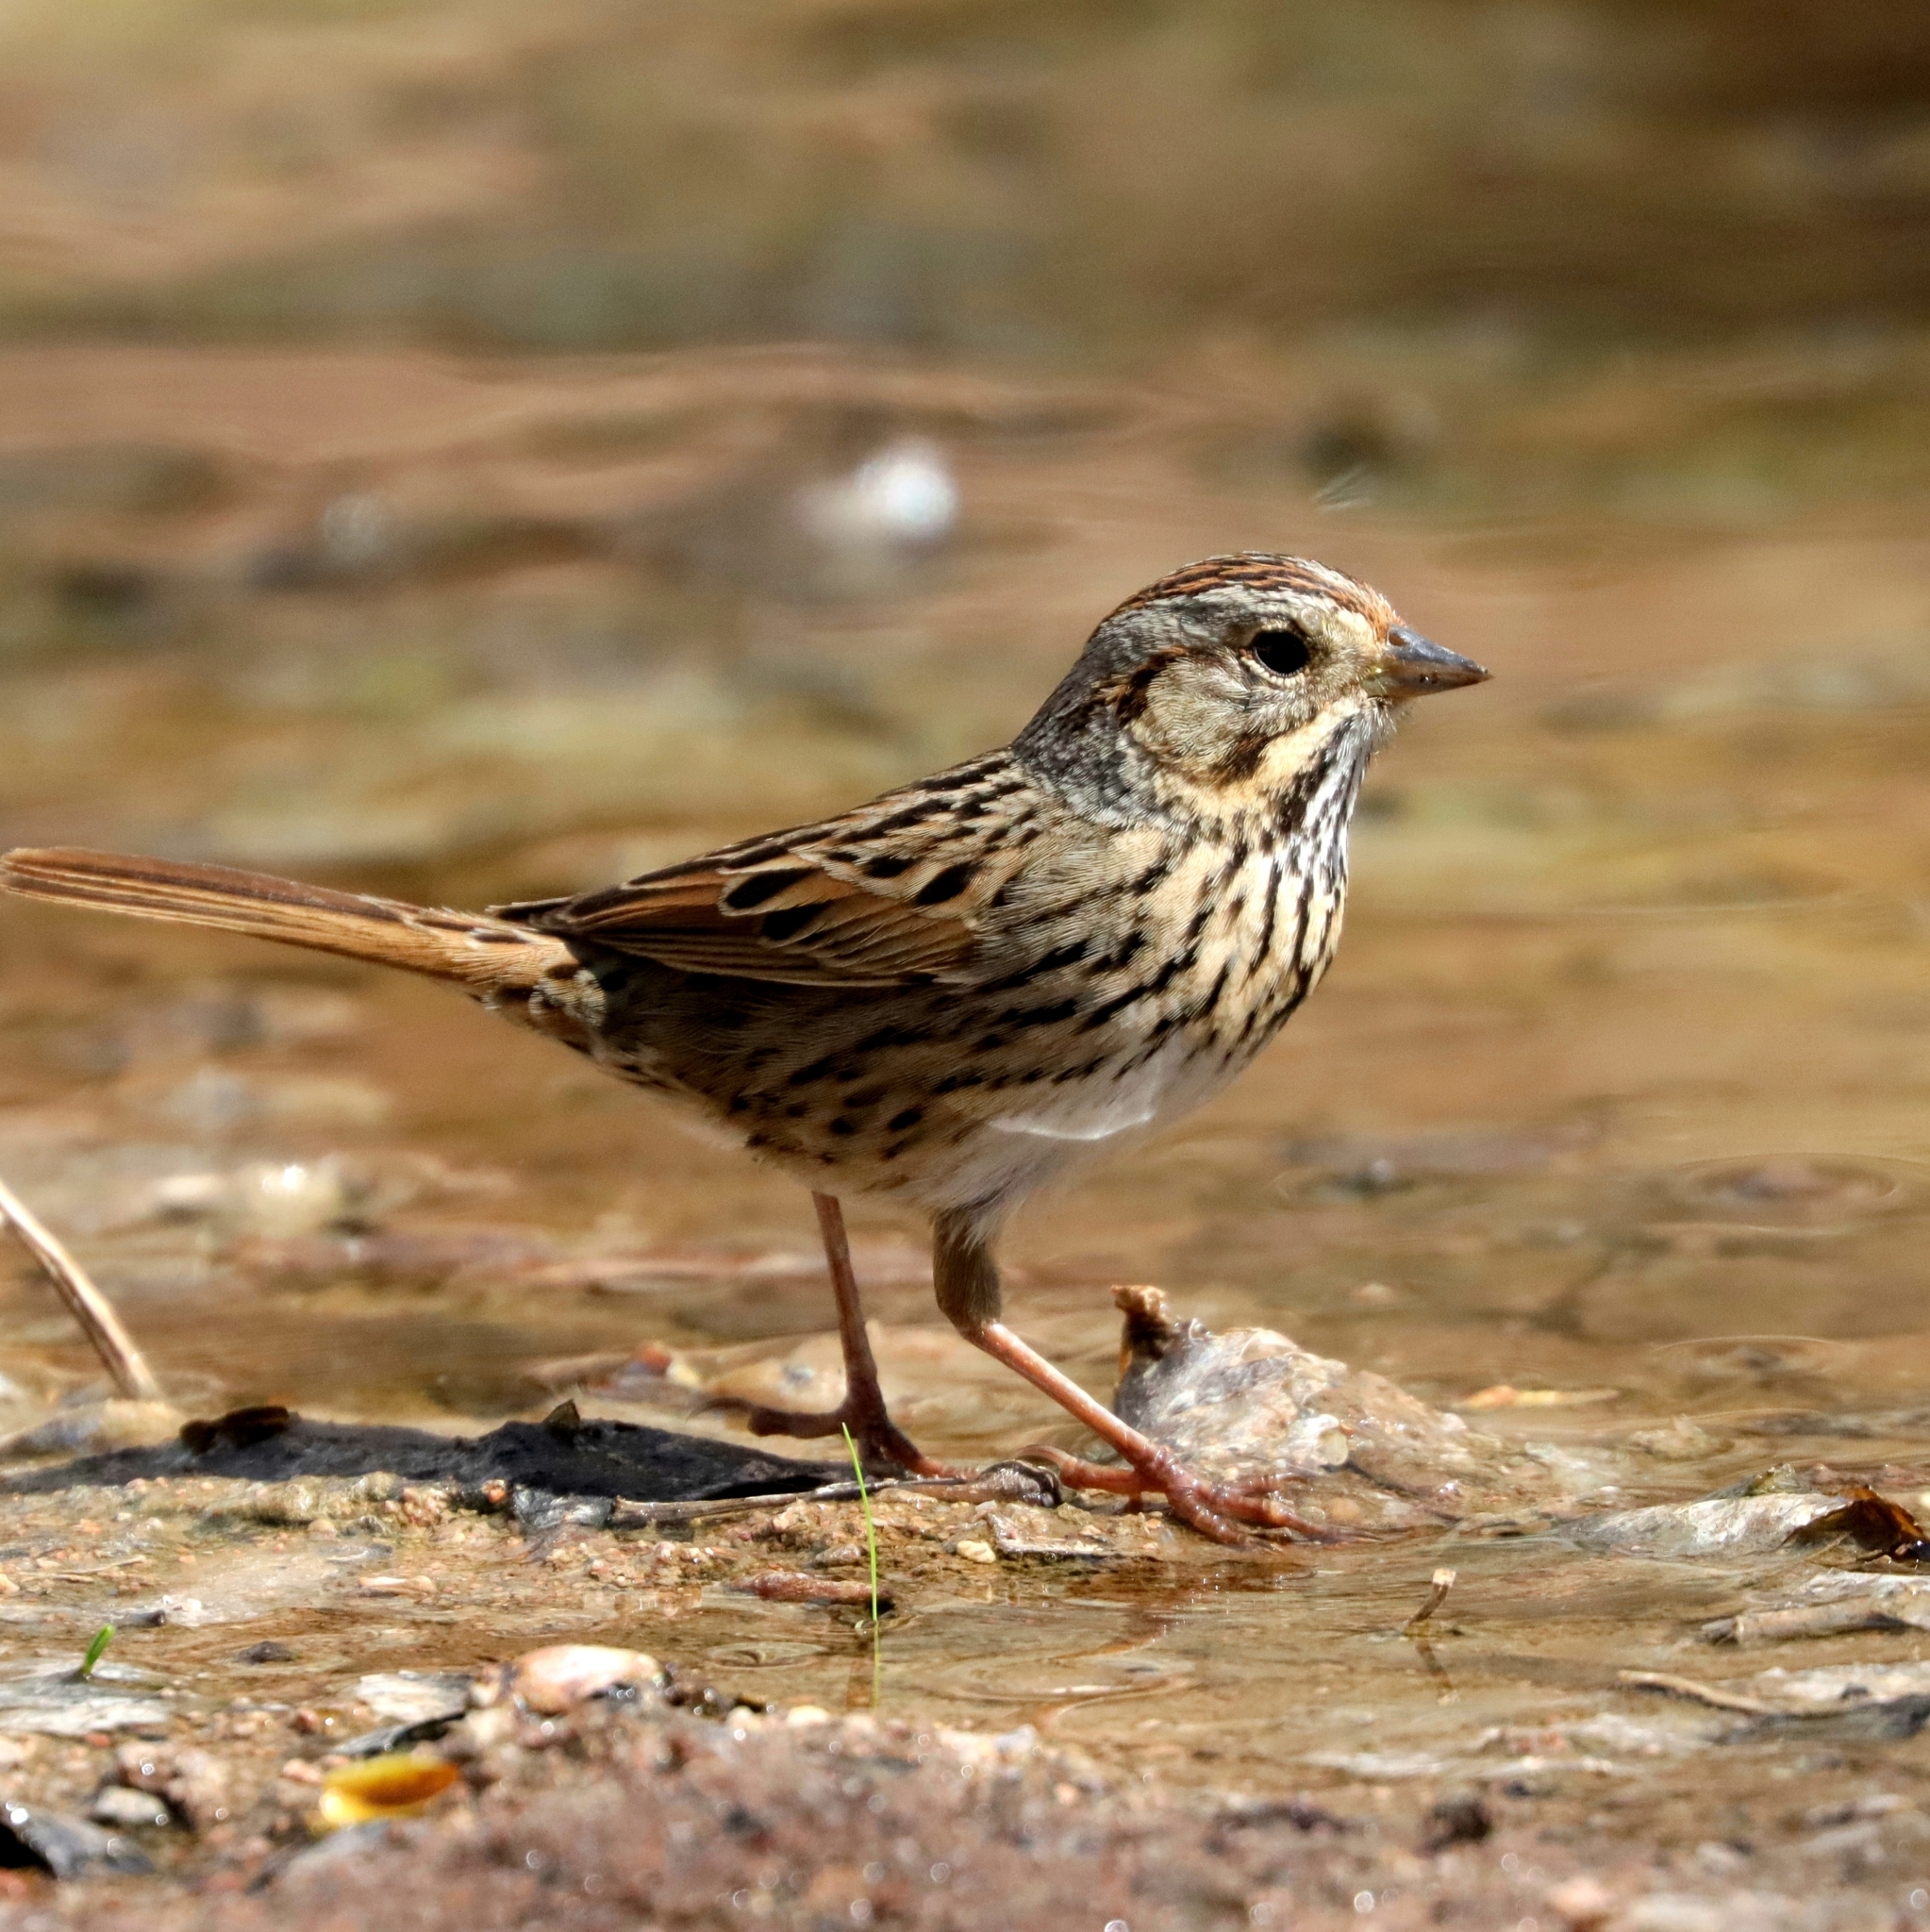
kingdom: Animalia
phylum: Chordata
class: Aves
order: Passeriformes
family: Passerellidae
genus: Melospiza
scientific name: Melospiza lincolnii
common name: Lincoln's sparrow
